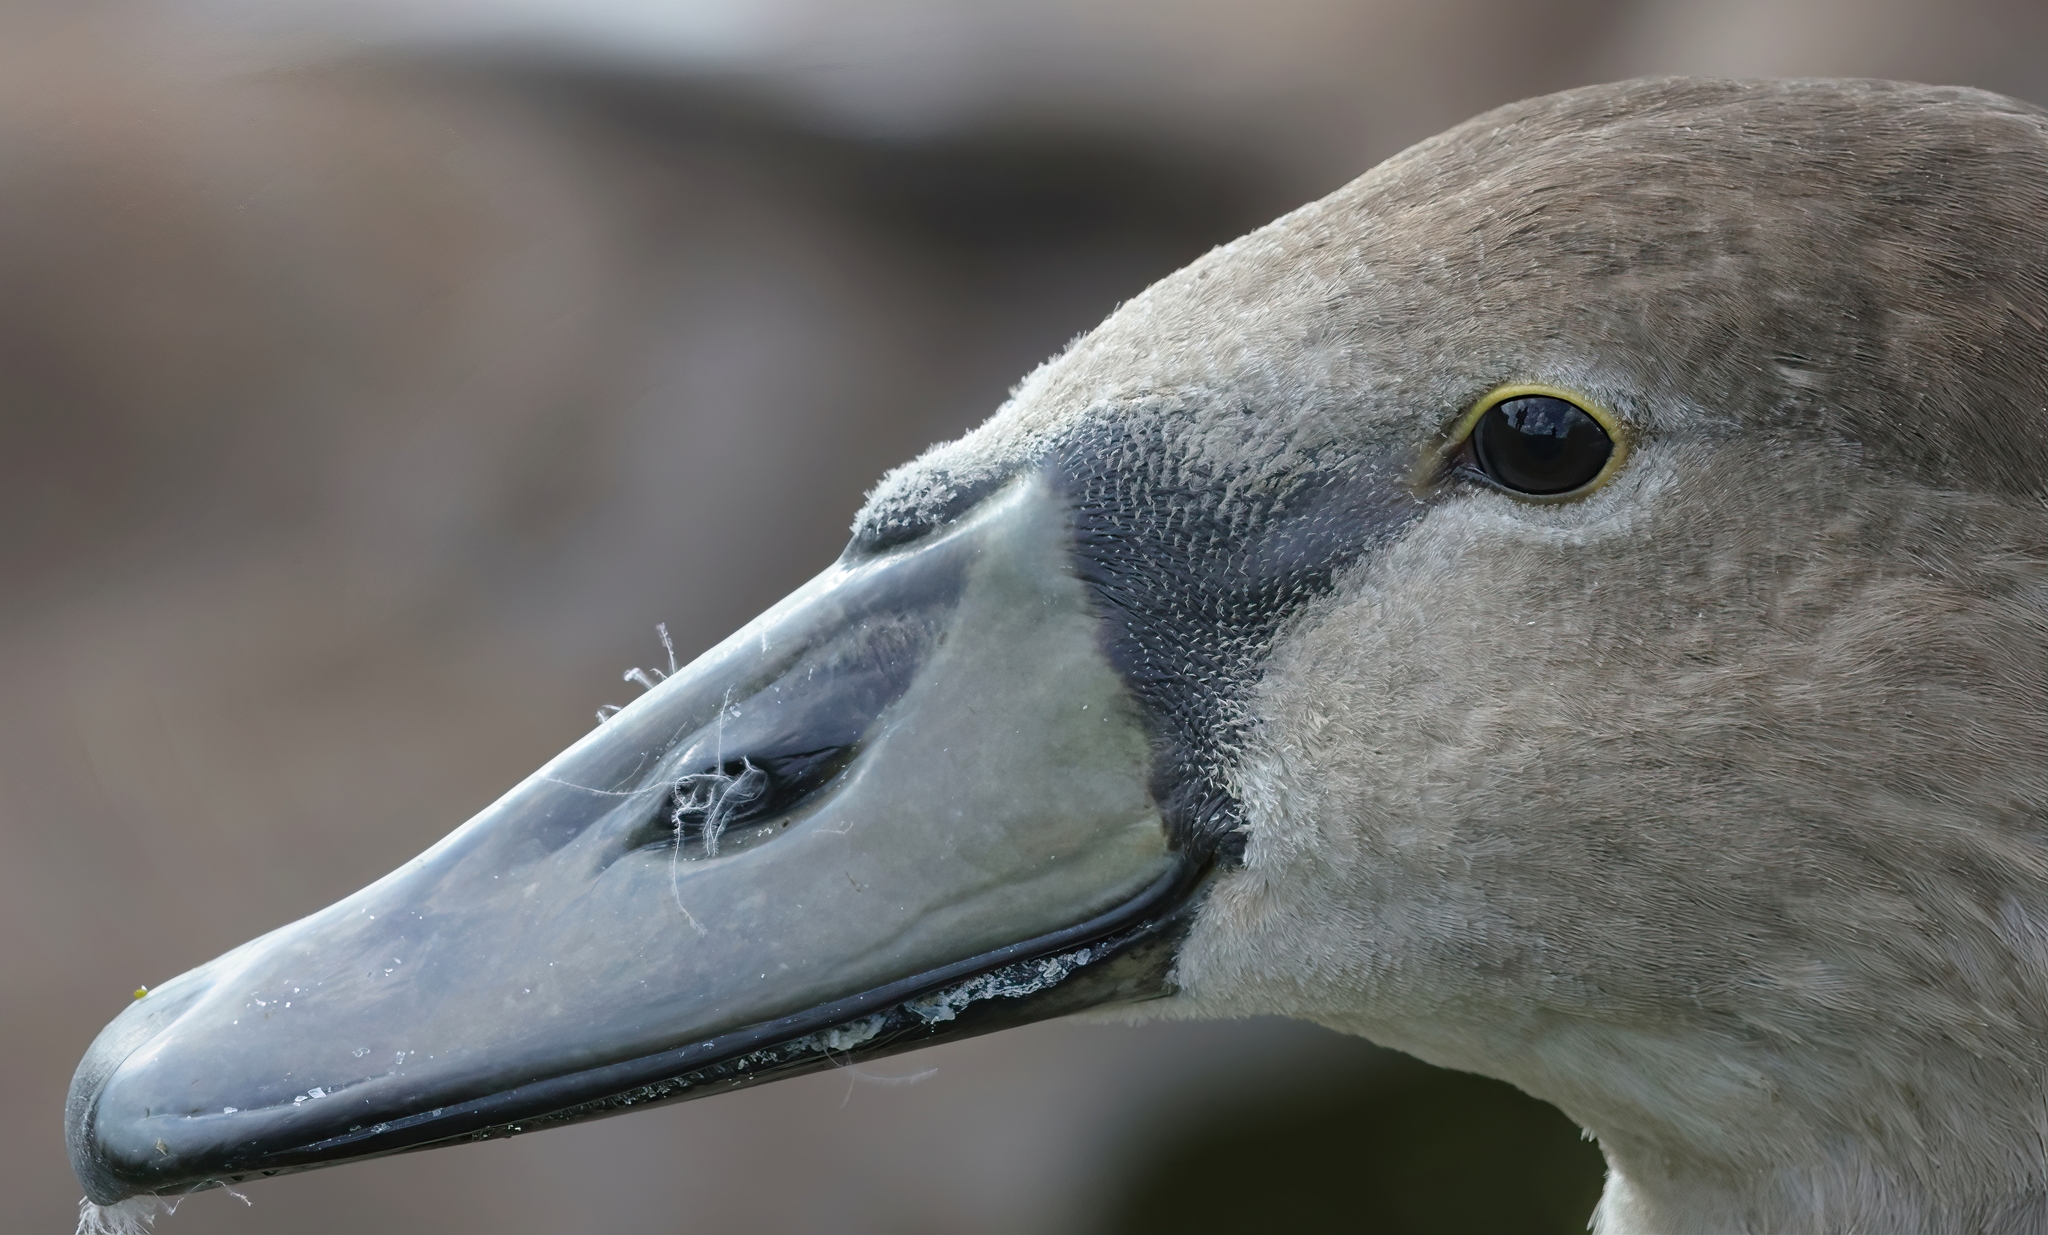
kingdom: Animalia
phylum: Chordata
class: Aves
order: Anseriformes
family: Anatidae
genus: Cygnus
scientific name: Cygnus olor
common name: Mute swan
